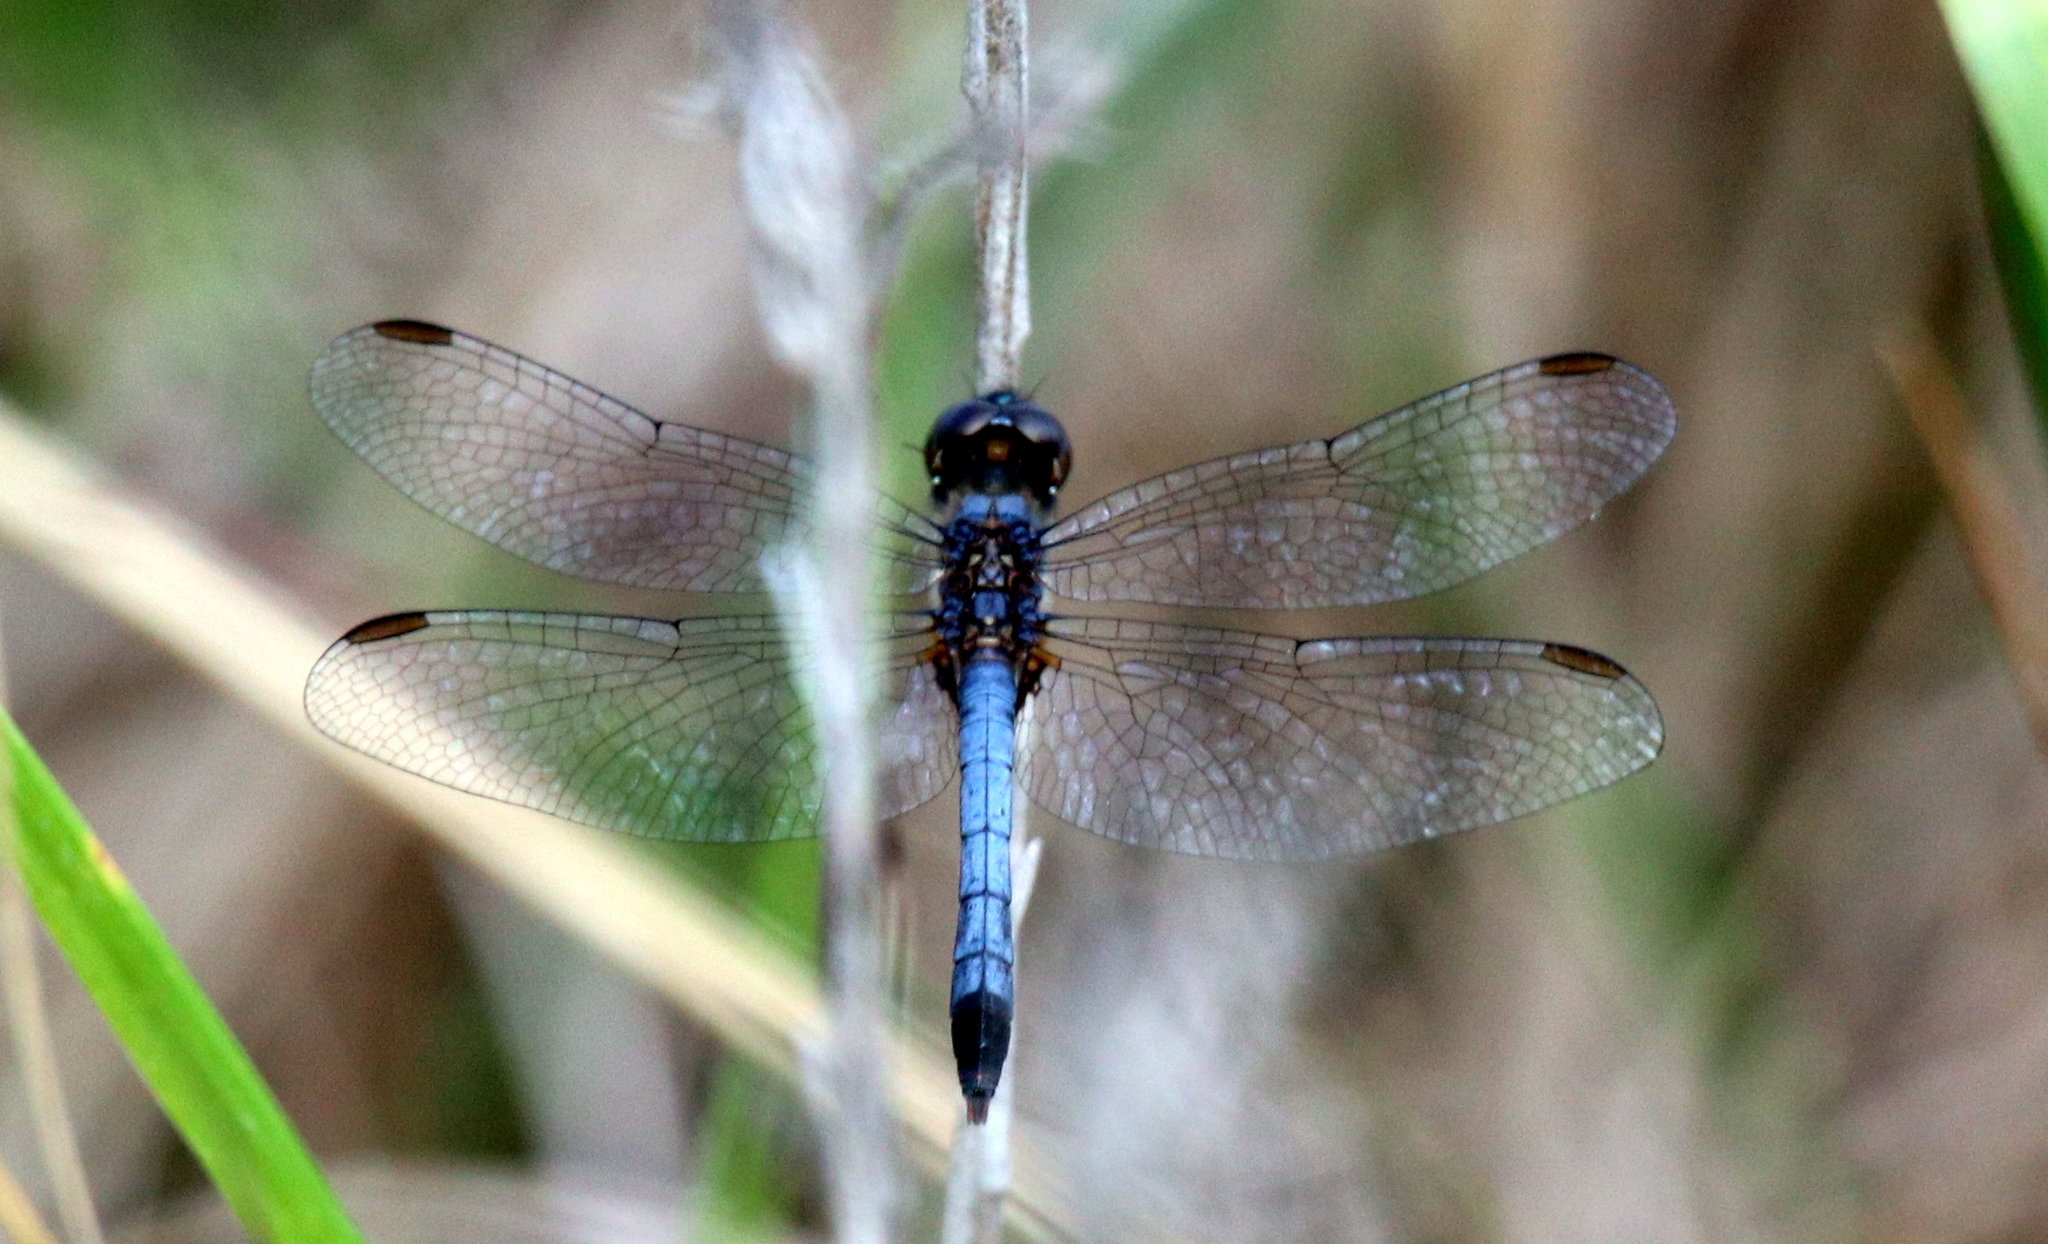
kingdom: Animalia
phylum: Arthropoda
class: Insecta
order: Odonata
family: Libellulidae
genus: Erythrodiplax
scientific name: Erythrodiplax minuscula
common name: Little blue dragonlet
